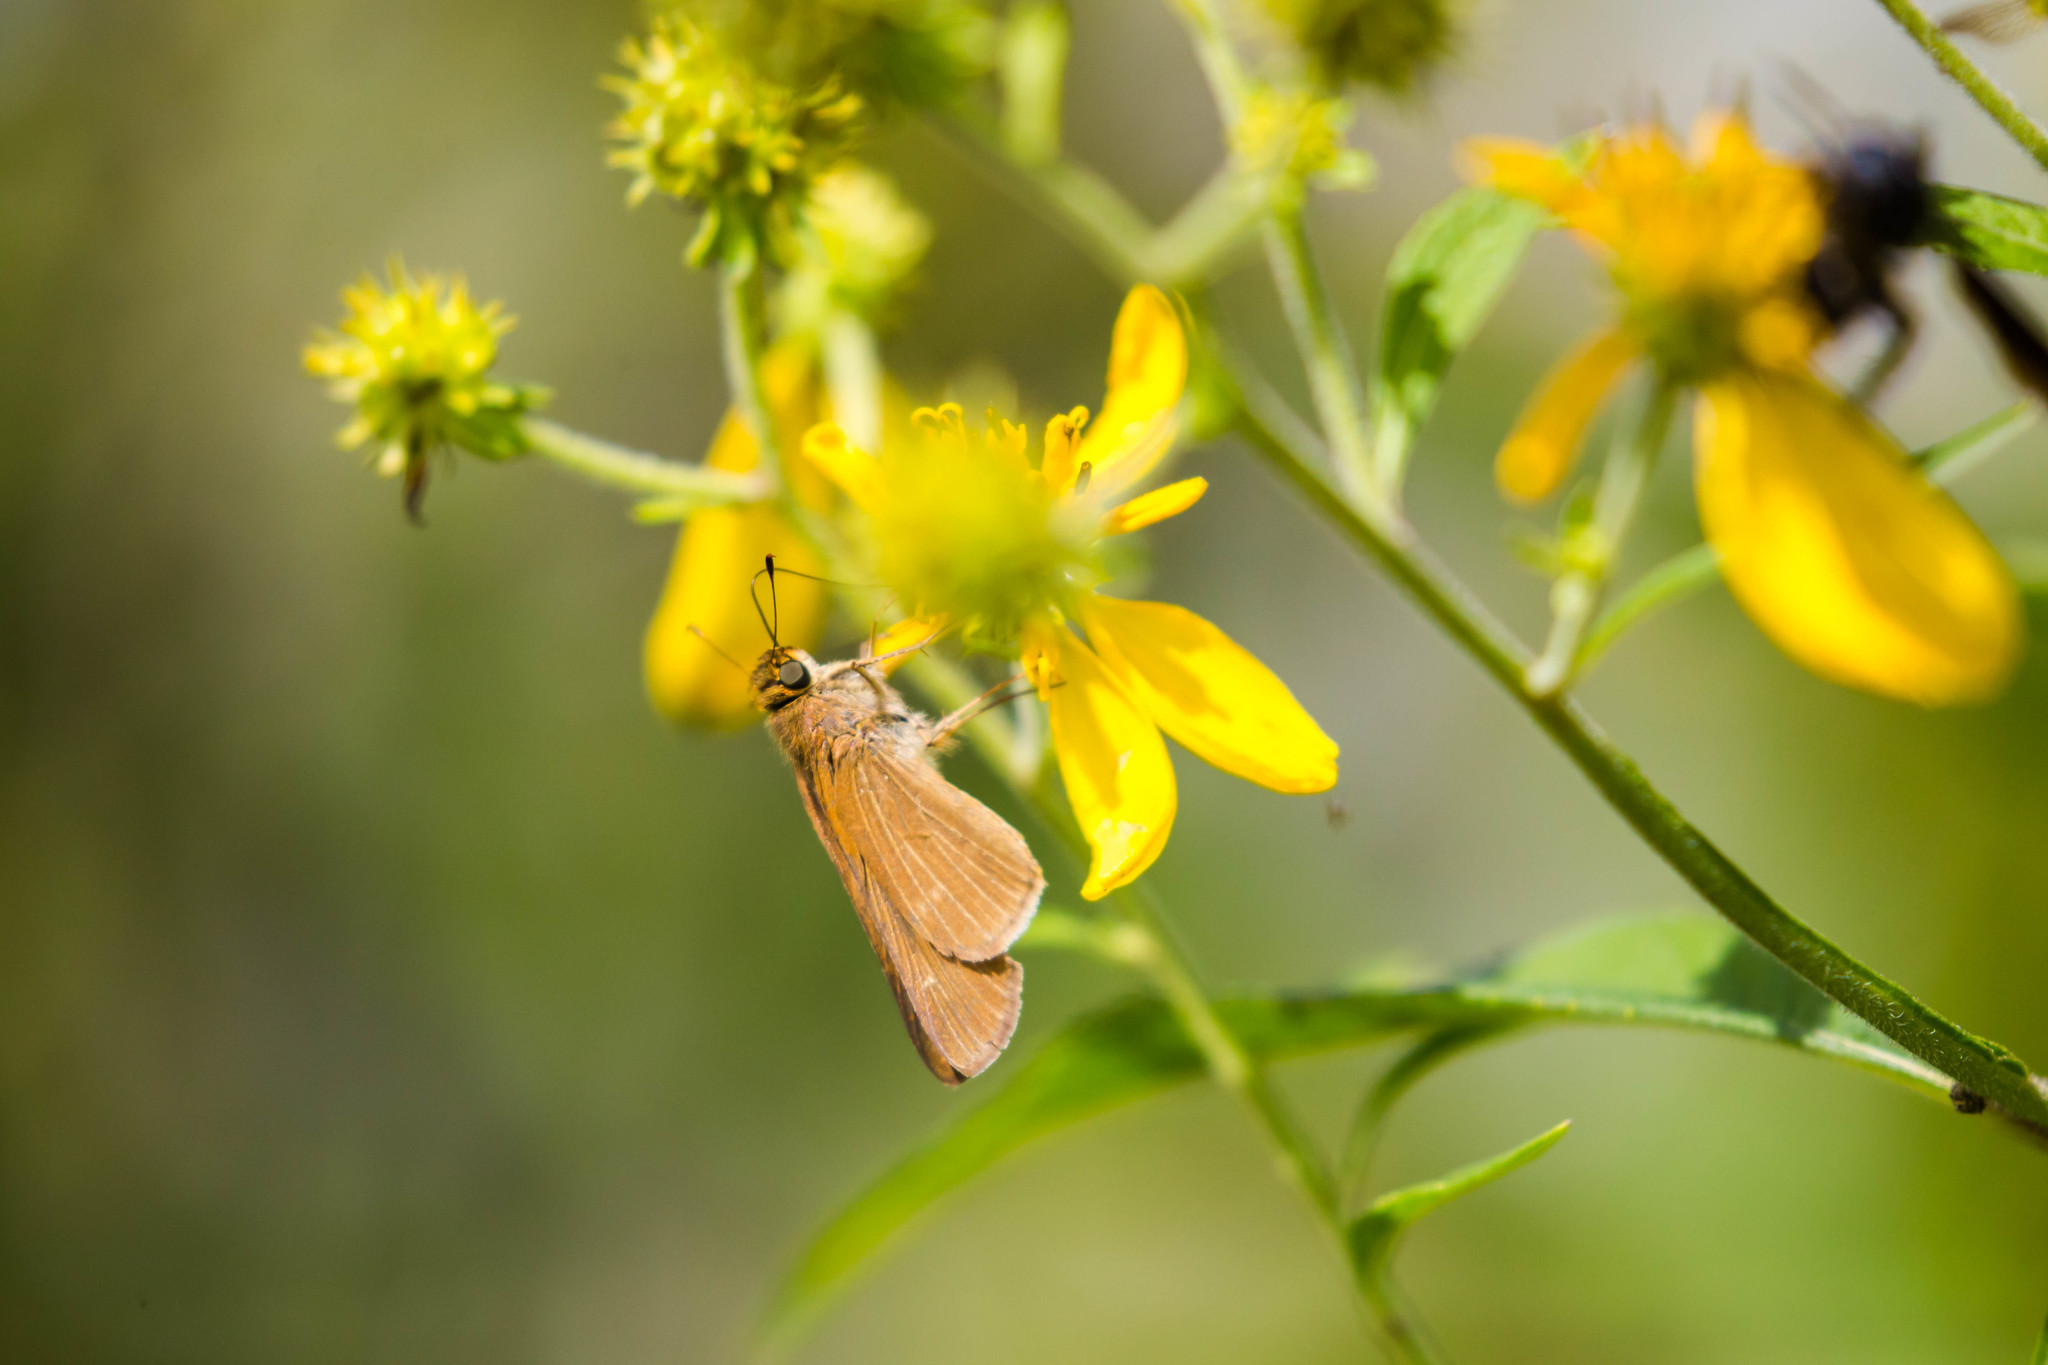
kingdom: Animalia
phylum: Arthropoda
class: Insecta
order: Lepidoptera
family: Hesperiidae
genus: Panoquina
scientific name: Panoquina ocola
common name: Ocola skipper
